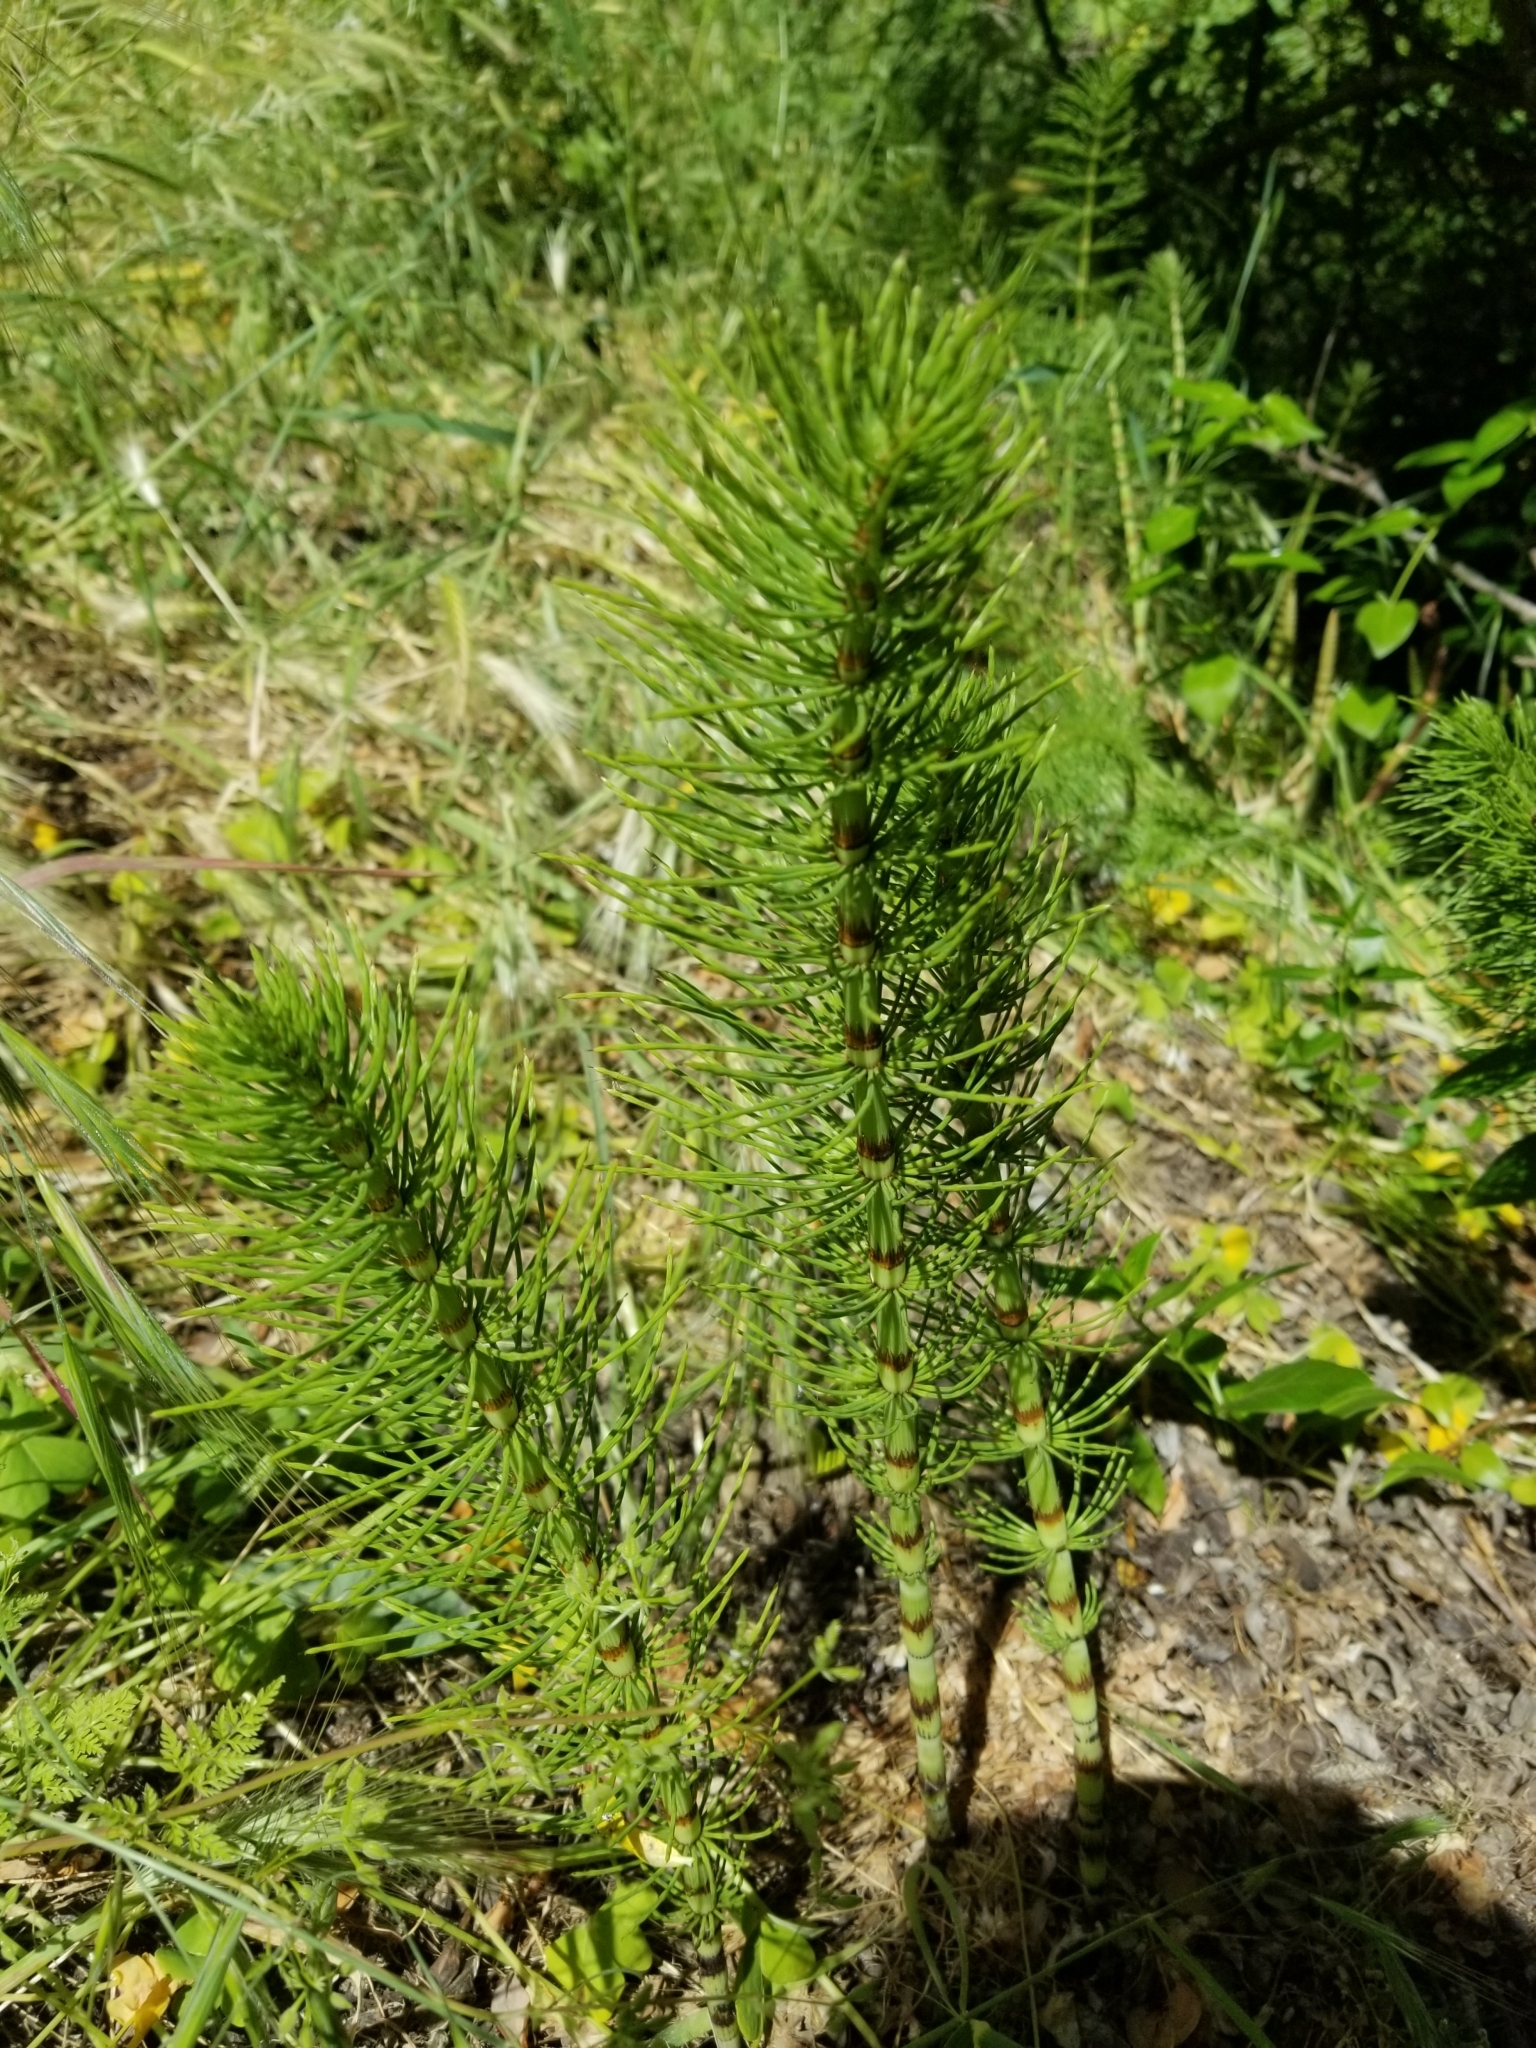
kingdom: Plantae
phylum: Tracheophyta
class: Polypodiopsida
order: Equisetales
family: Equisetaceae
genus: Equisetum
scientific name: Equisetum telmateia
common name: Great horsetail
